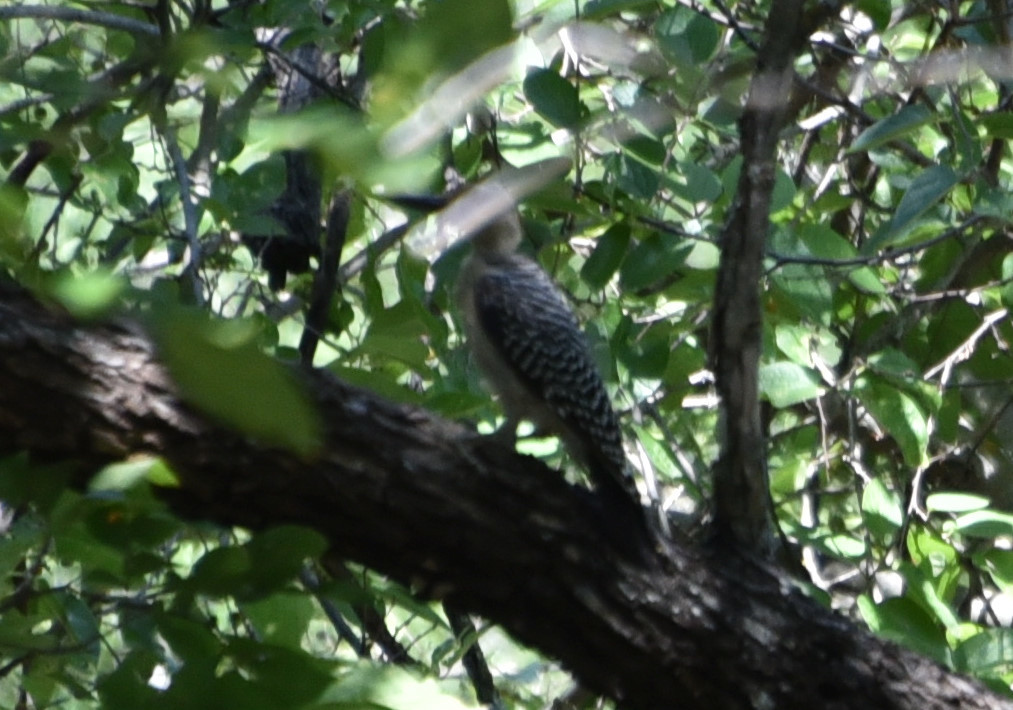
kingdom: Animalia
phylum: Chordata
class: Aves
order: Piciformes
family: Picidae
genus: Melanerpes
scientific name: Melanerpes aurifrons
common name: Golden-fronted woodpecker
